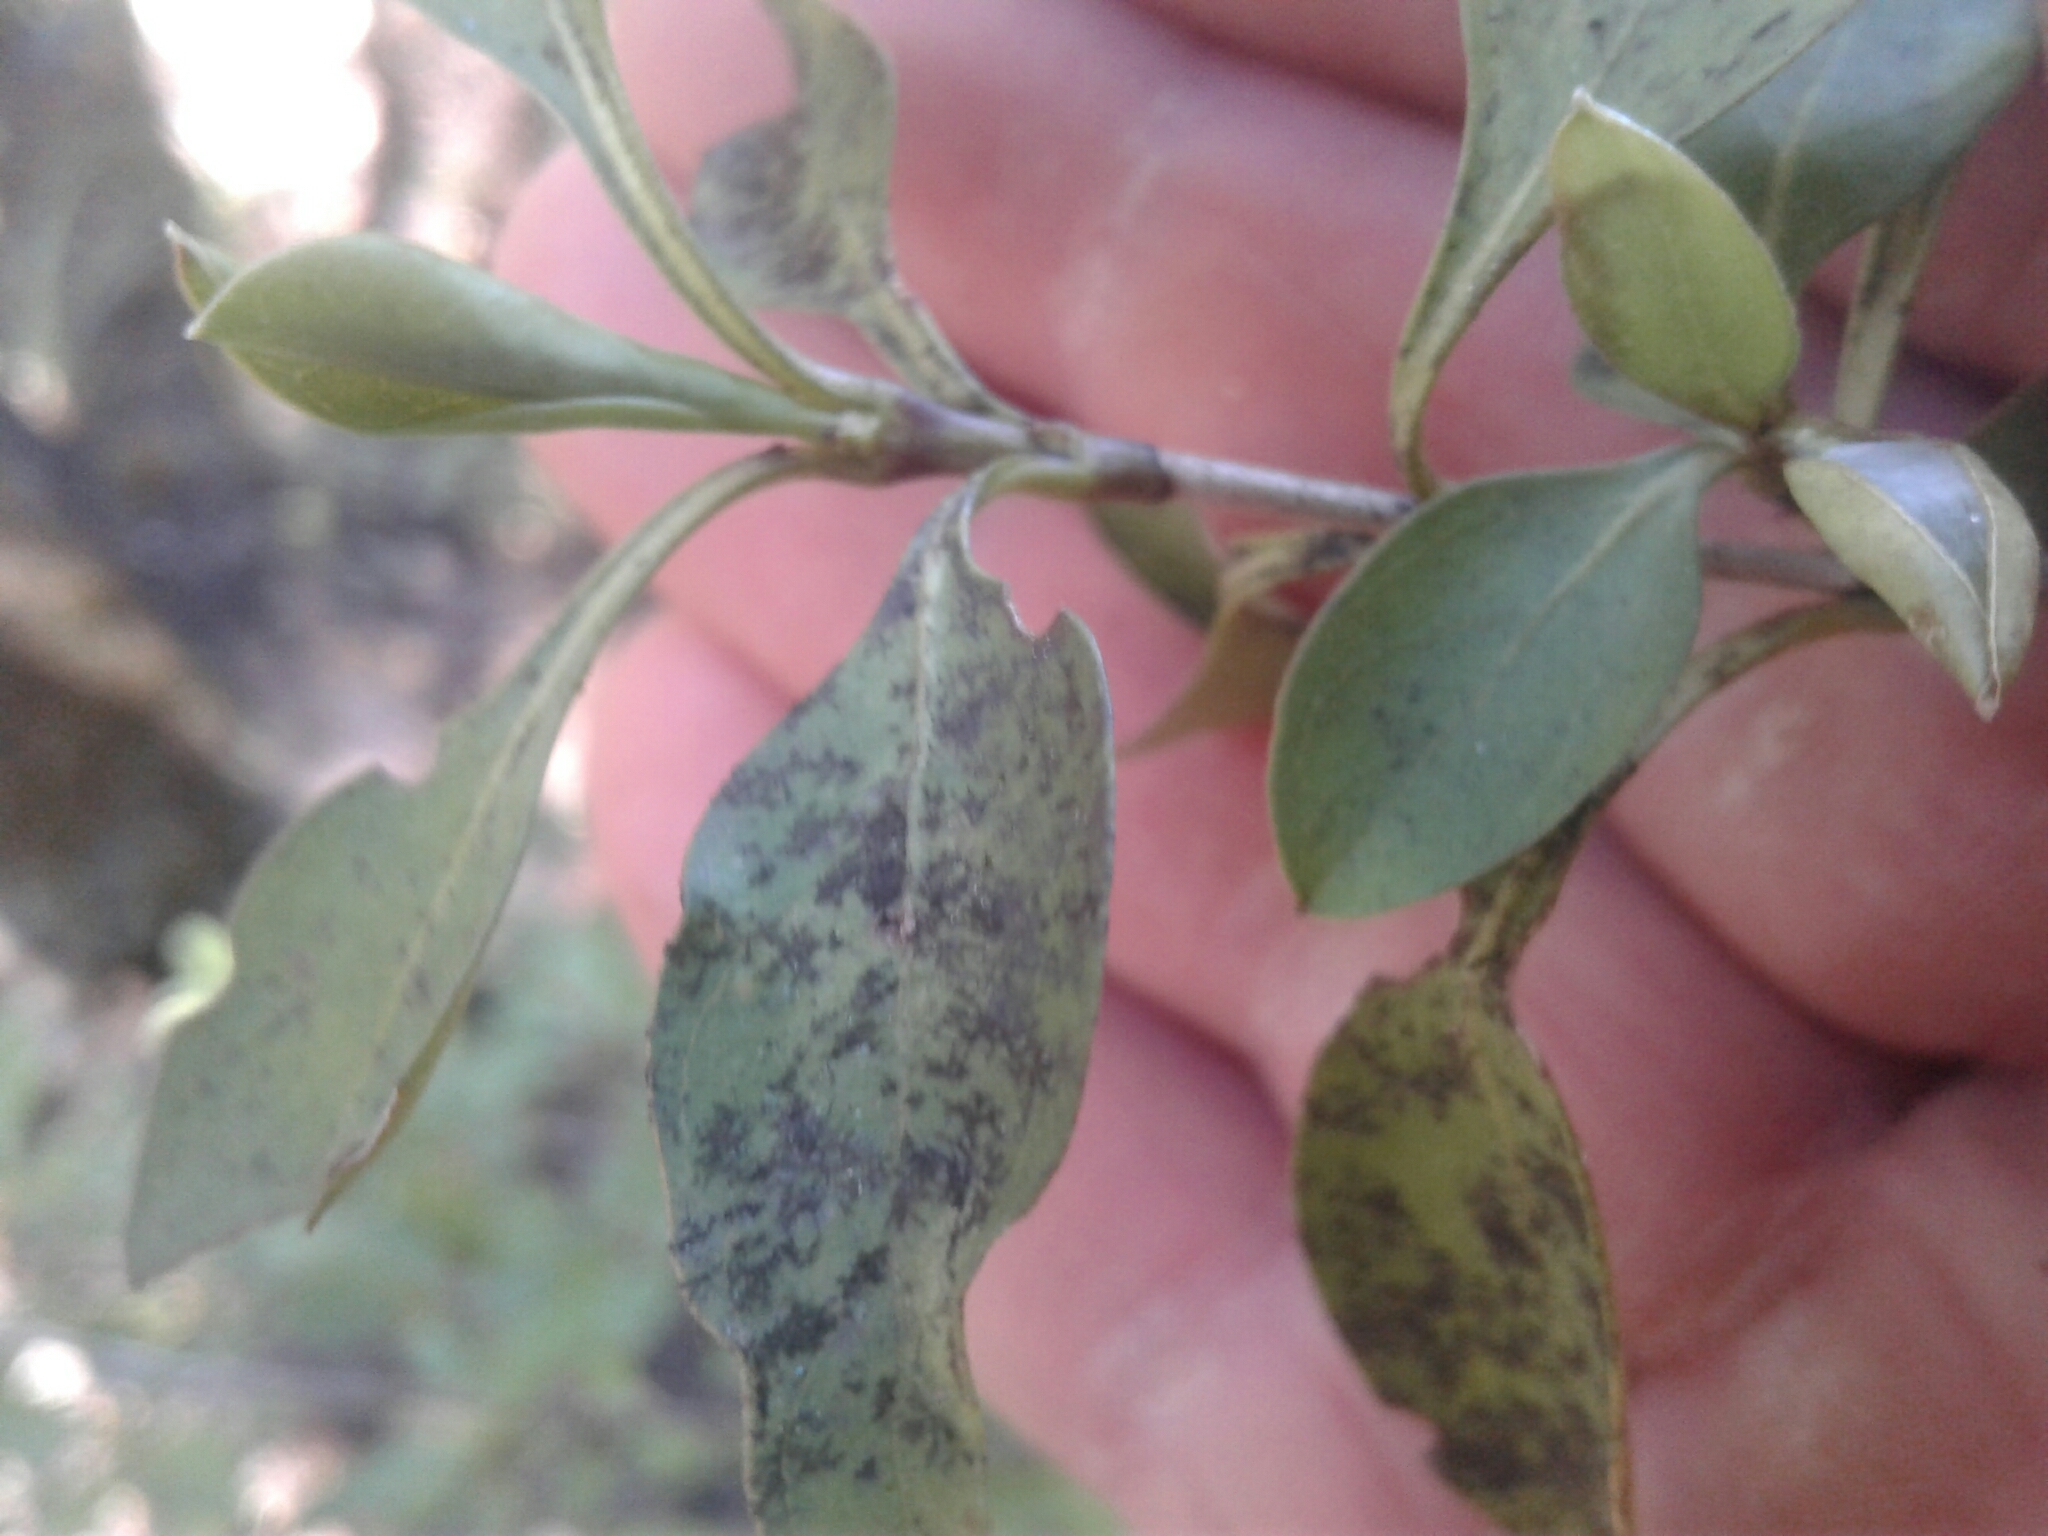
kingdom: Plantae
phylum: Tracheophyta
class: Magnoliopsida
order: Gentianales
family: Rubiaceae
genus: Coprosma
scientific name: Coprosma foetidissima
